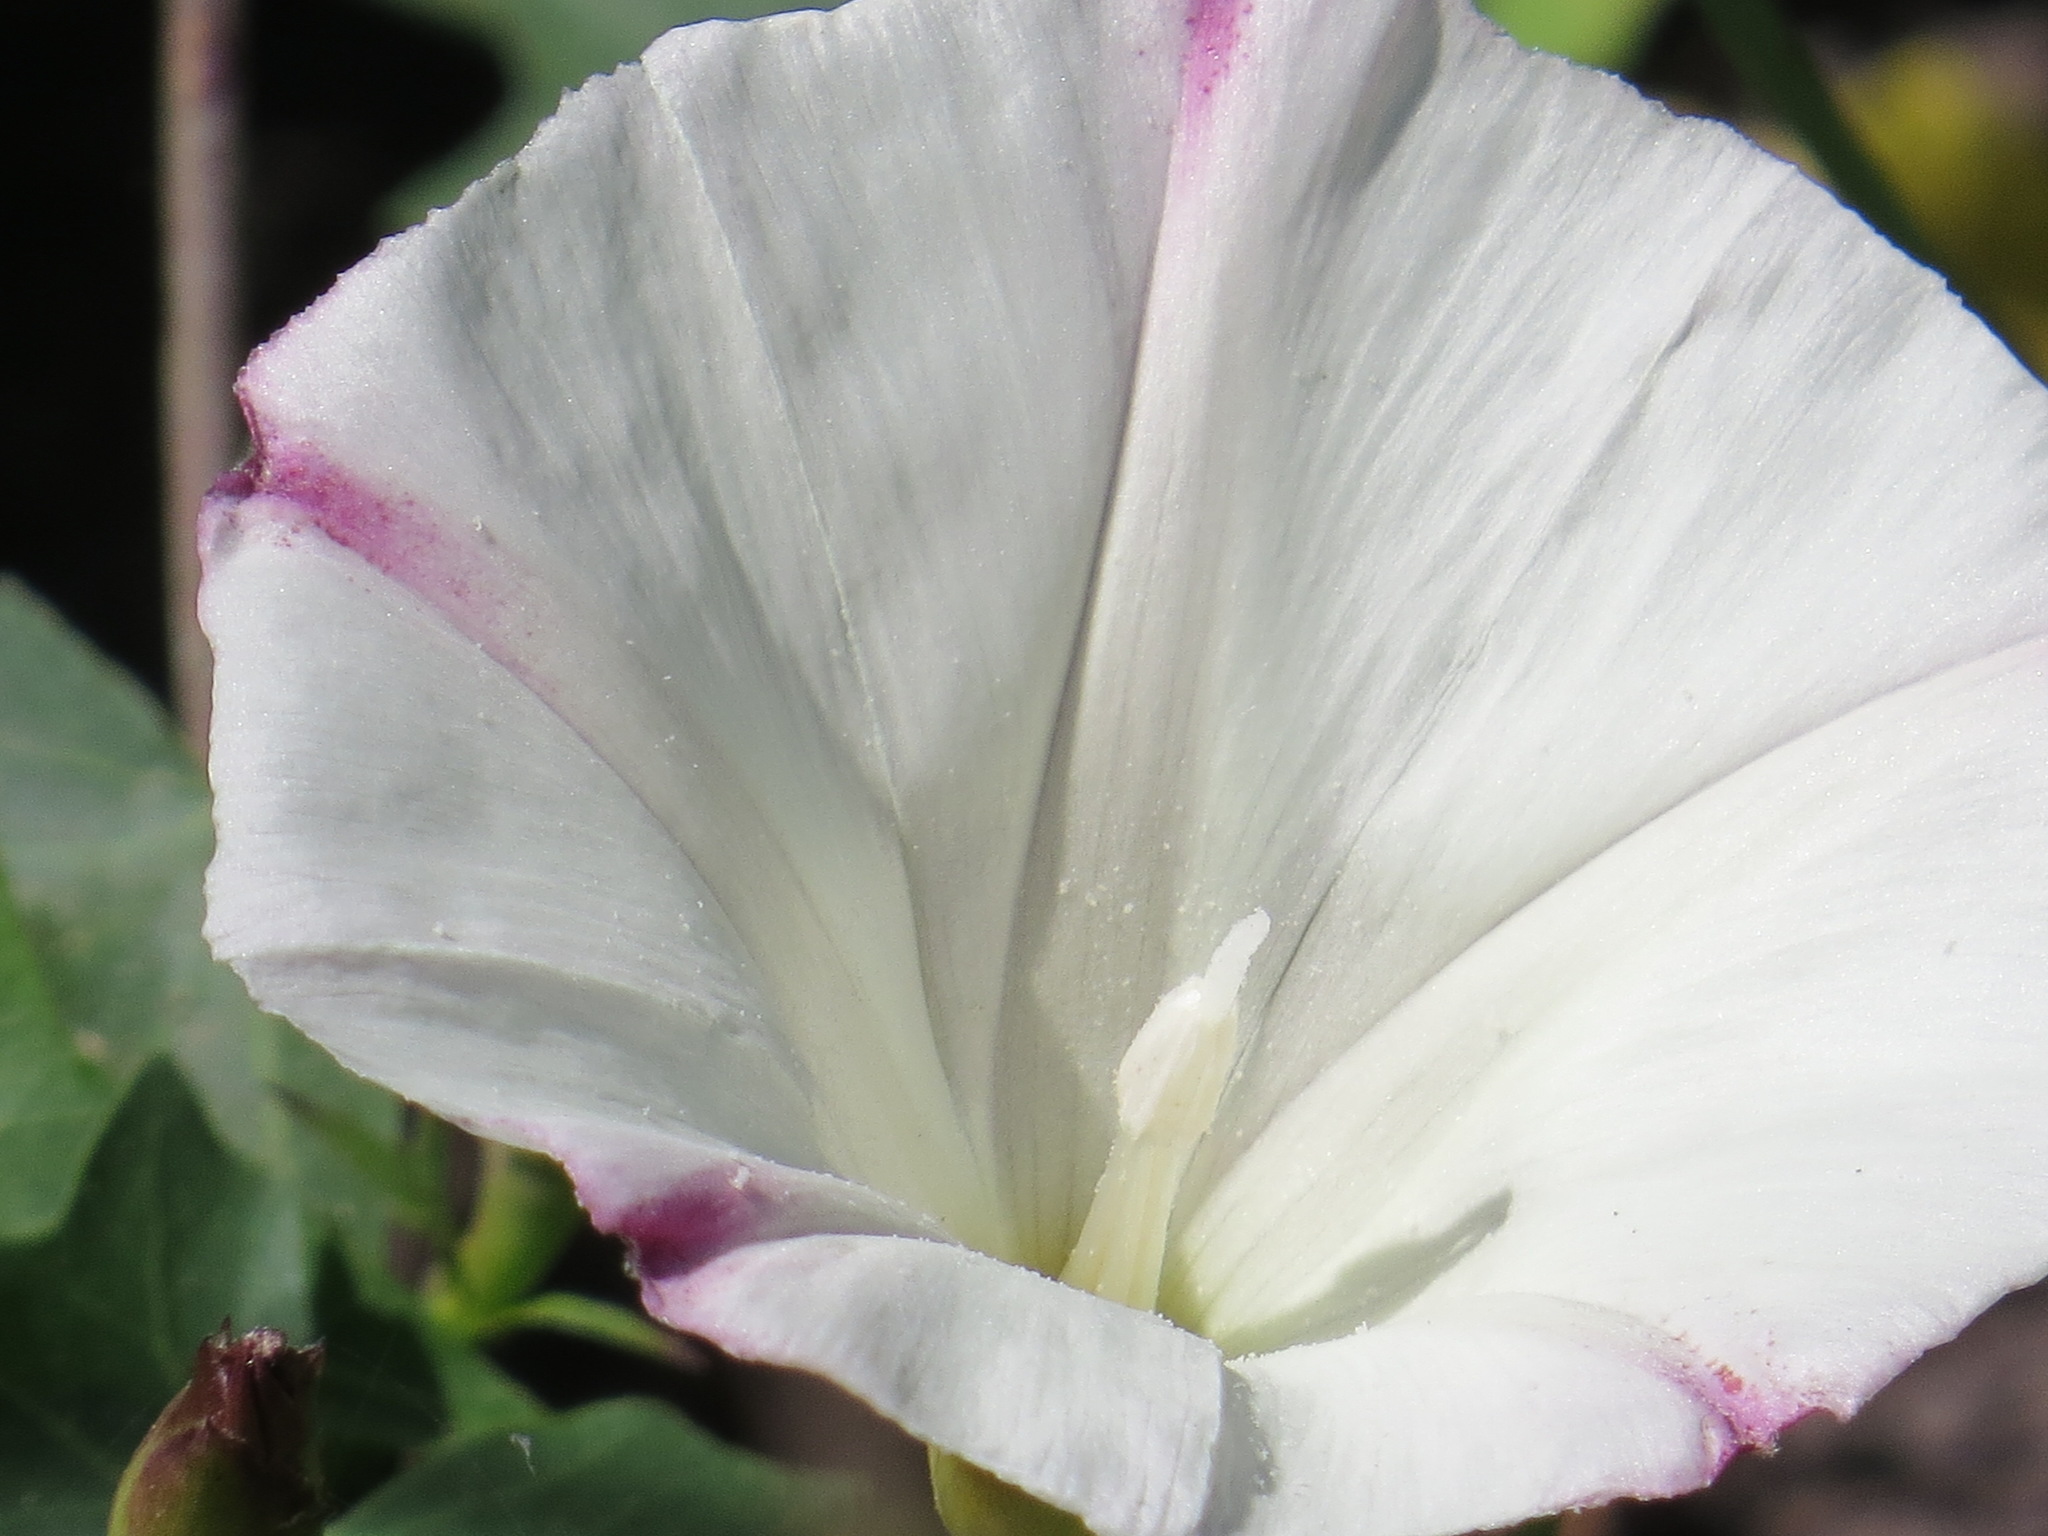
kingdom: Plantae
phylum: Tracheophyta
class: Magnoliopsida
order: Solanales
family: Convolvulaceae
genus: Calystegia
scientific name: Calystegia purpurata
